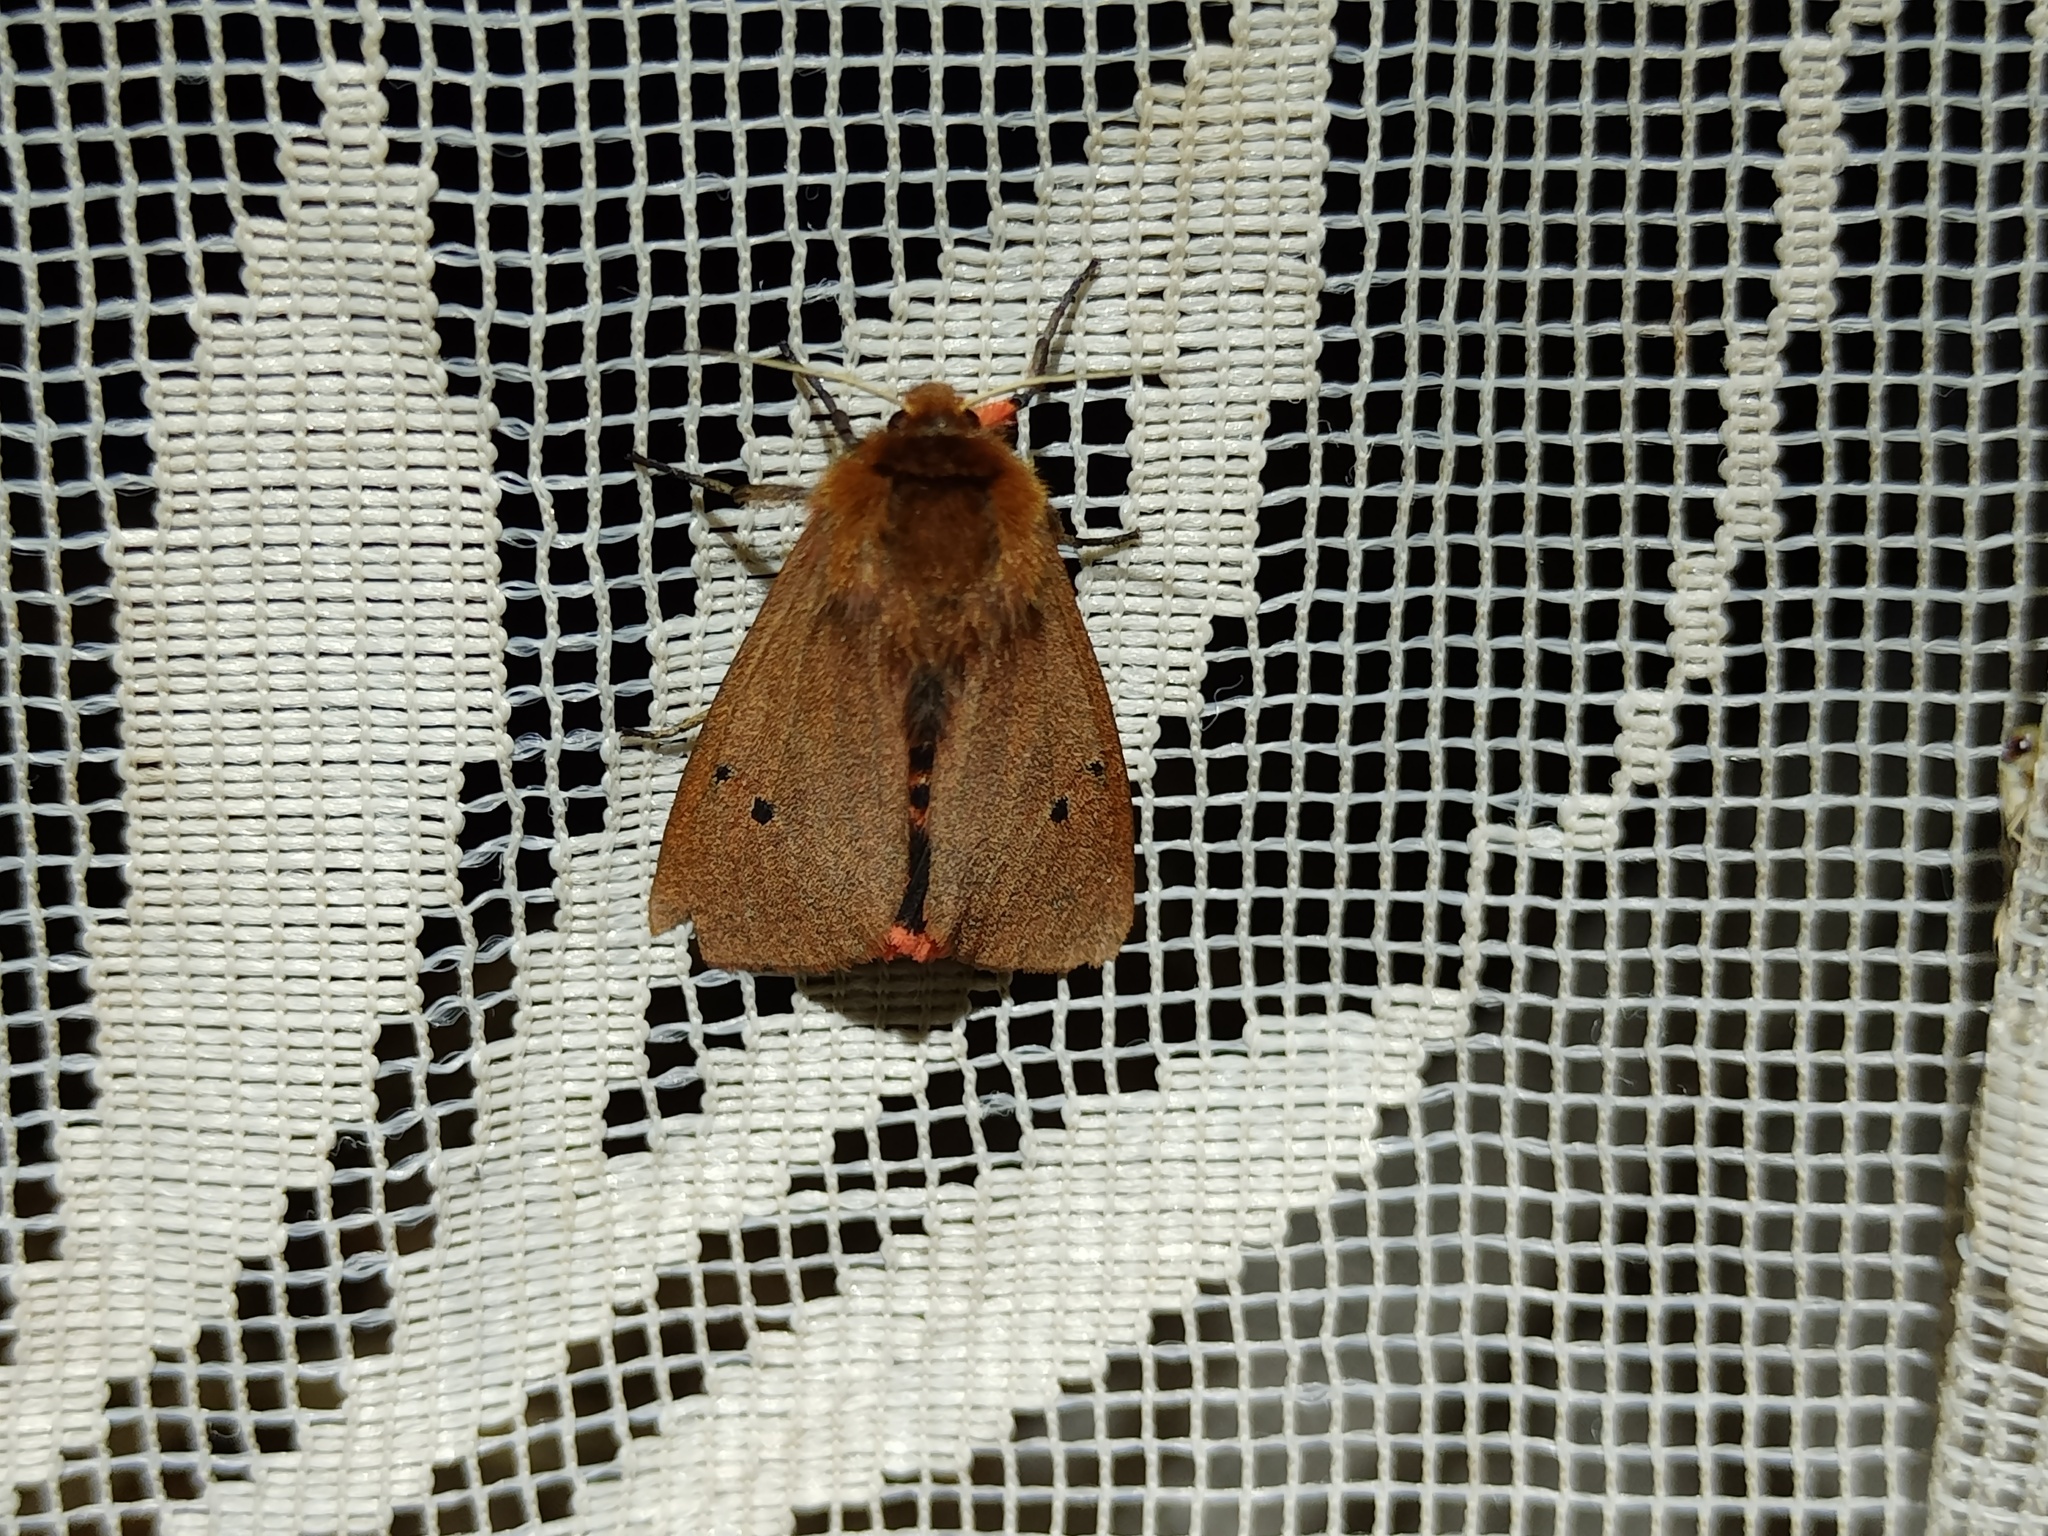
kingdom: Animalia
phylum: Arthropoda
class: Insecta
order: Lepidoptera
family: Erebidae
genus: Phragmatobia
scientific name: Phragmatobia fuliginosa
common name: Ruby tiger
